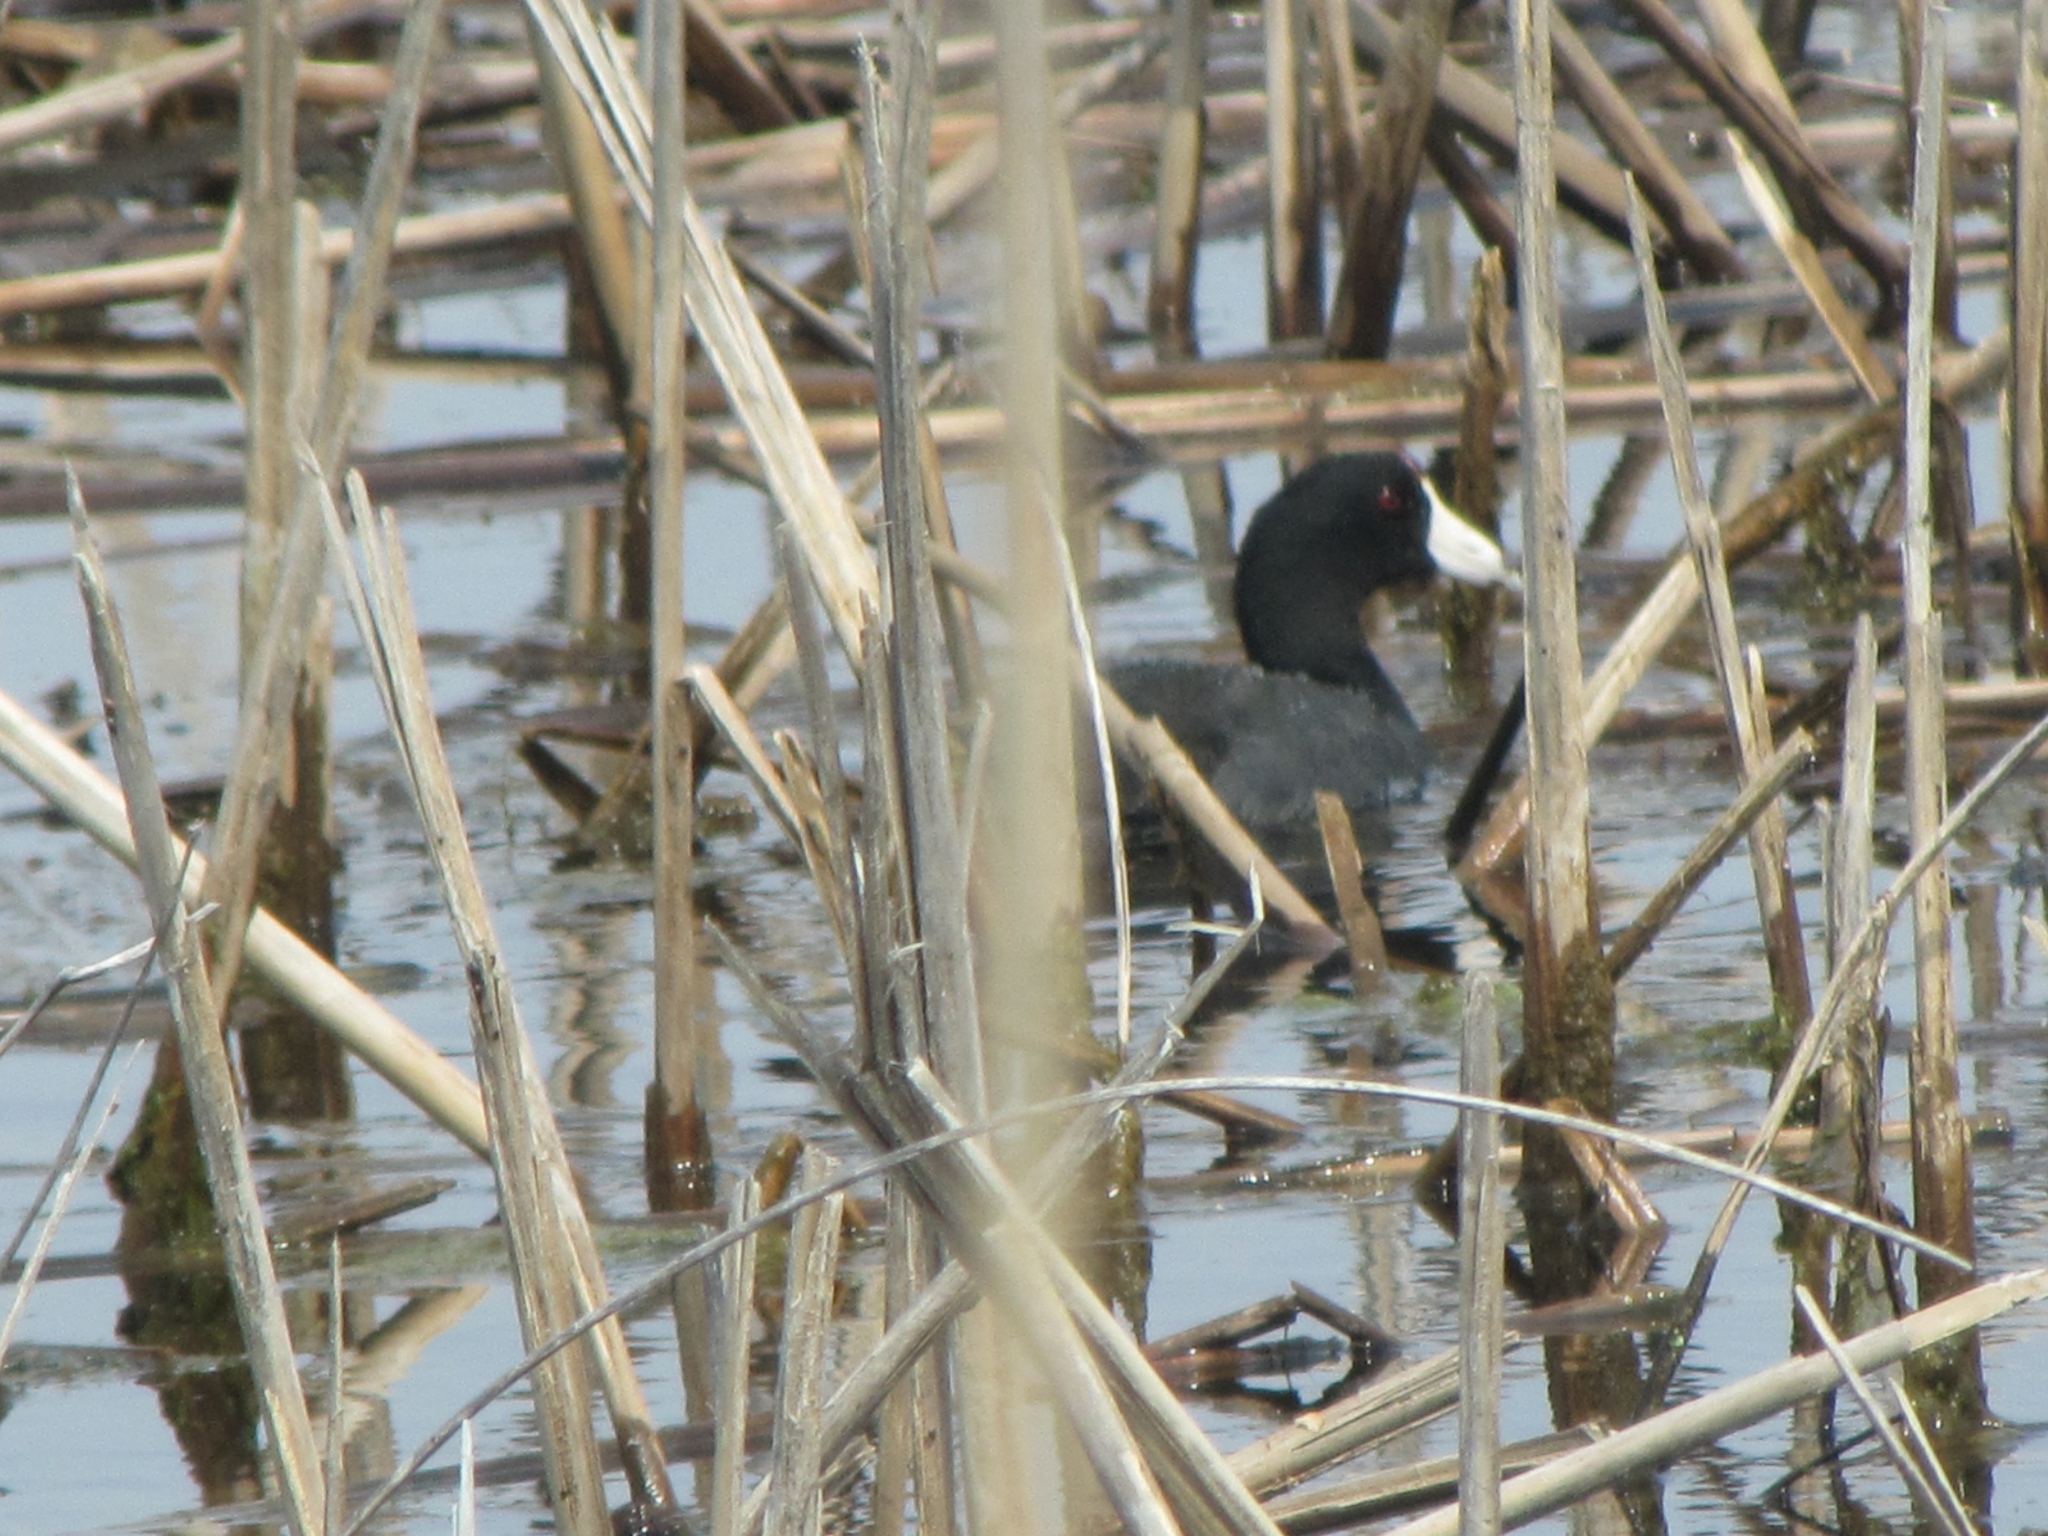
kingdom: Animalia
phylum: Chordata
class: Aves
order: Gruiformes
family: Rallidae
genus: Fulica
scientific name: Fulica americana
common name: American coot
